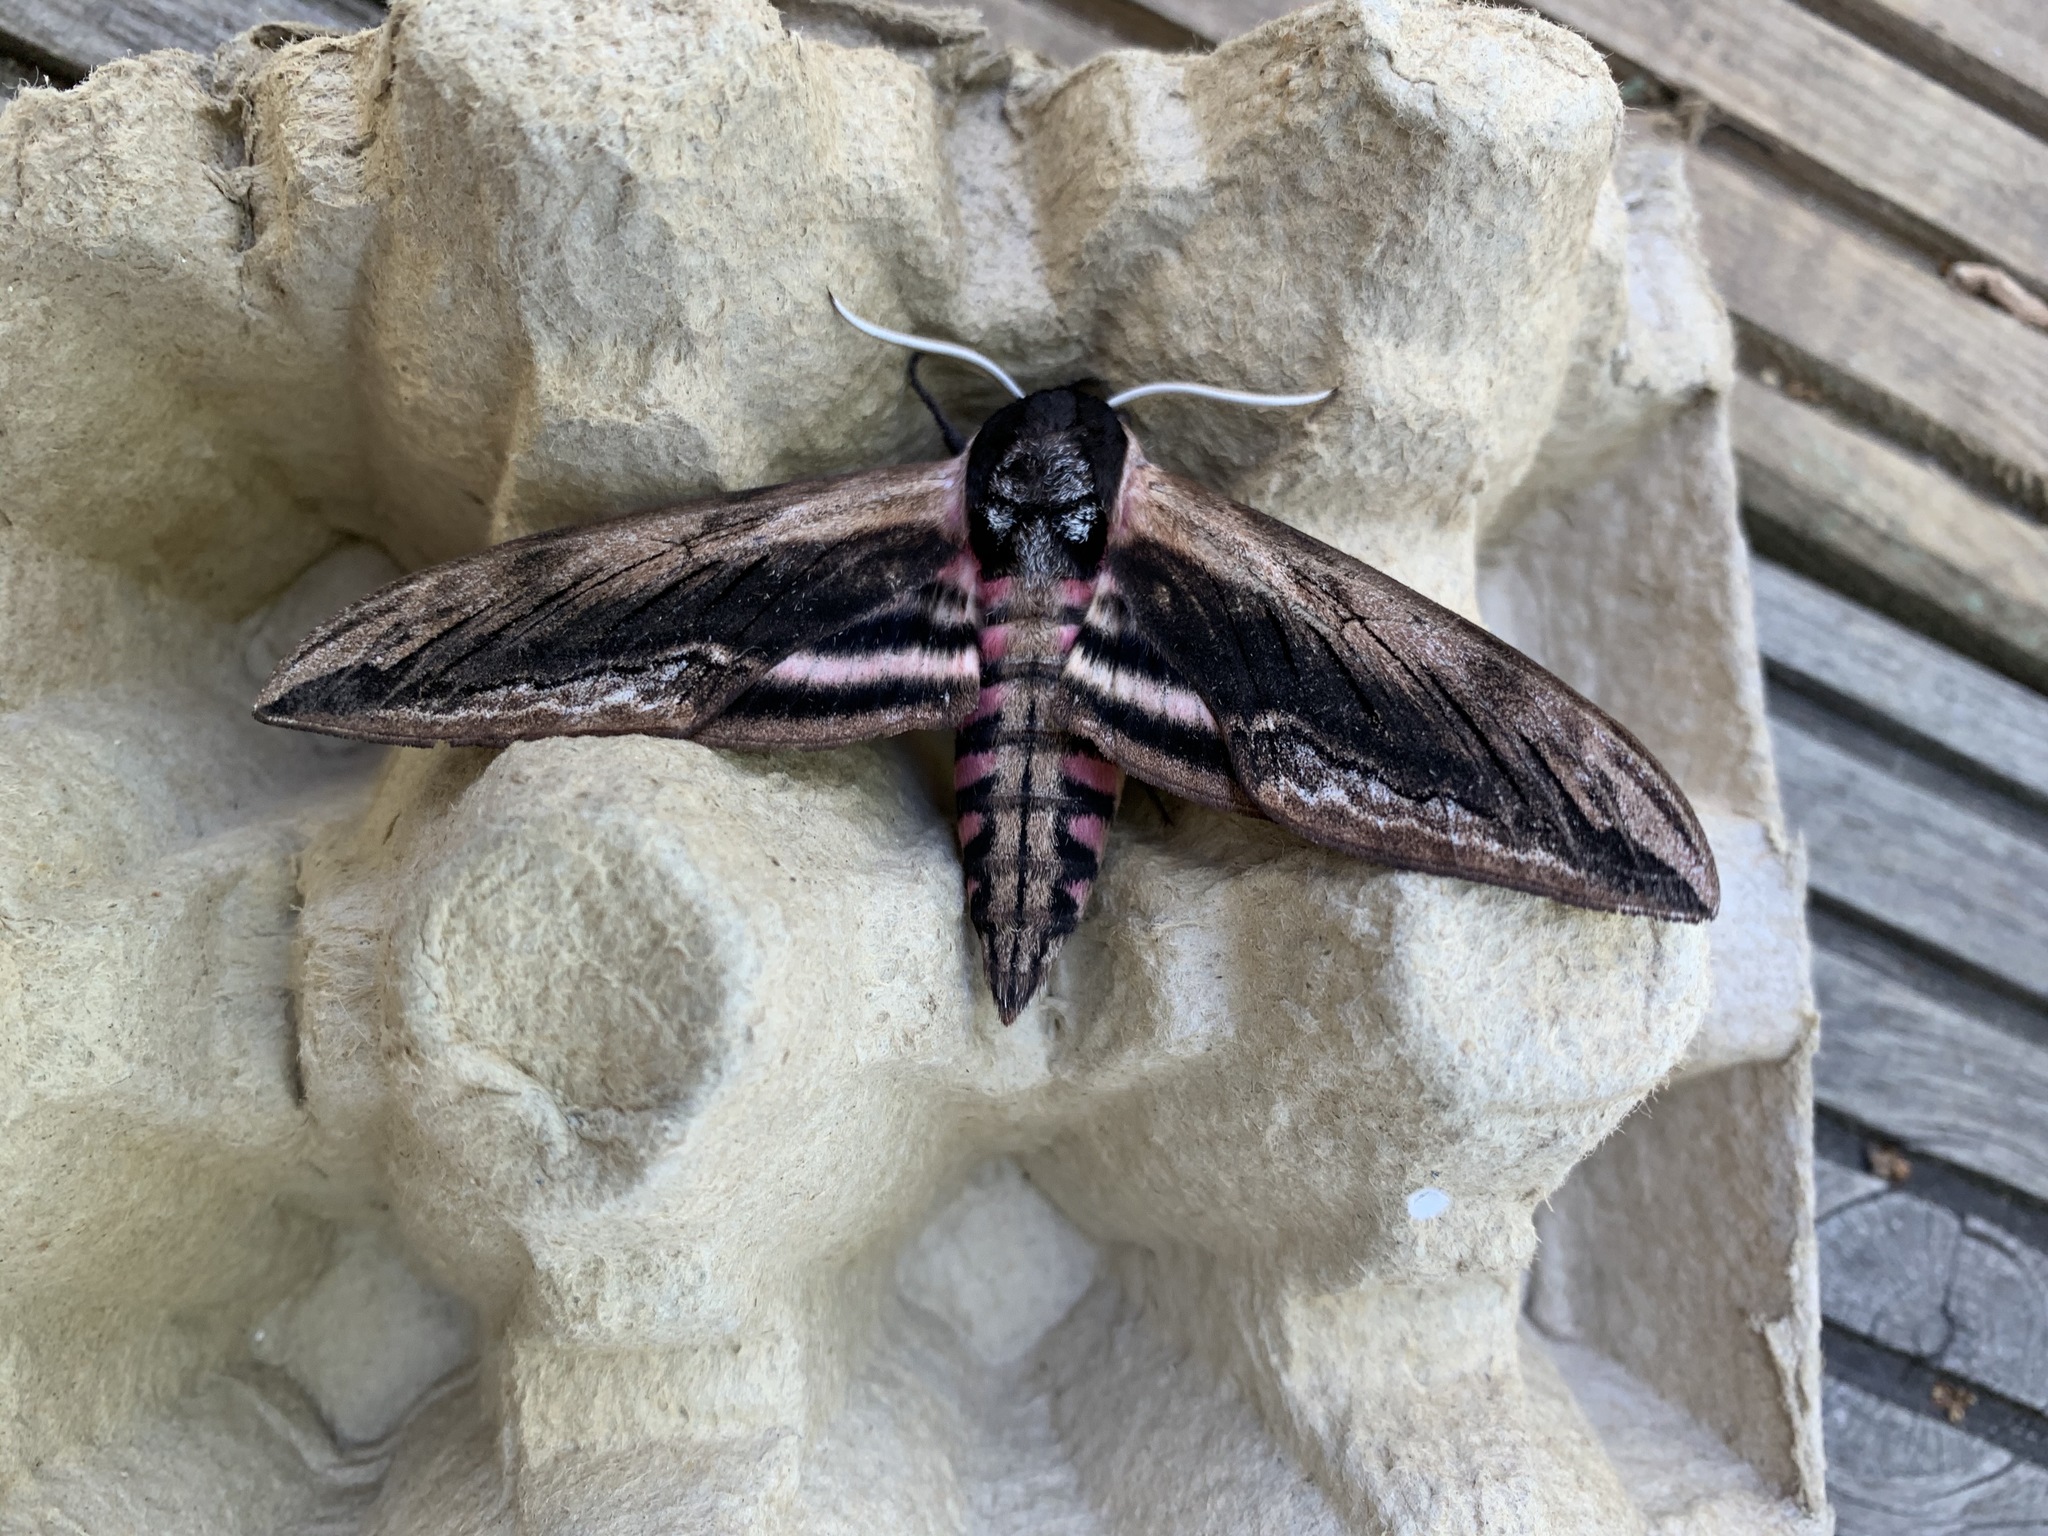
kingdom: Animalia
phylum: Arthropoda
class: Insecta
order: Lepidoptera
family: Sphingidae
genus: Sphinx
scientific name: Sphinx ligustri
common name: Privet hawk-moth
